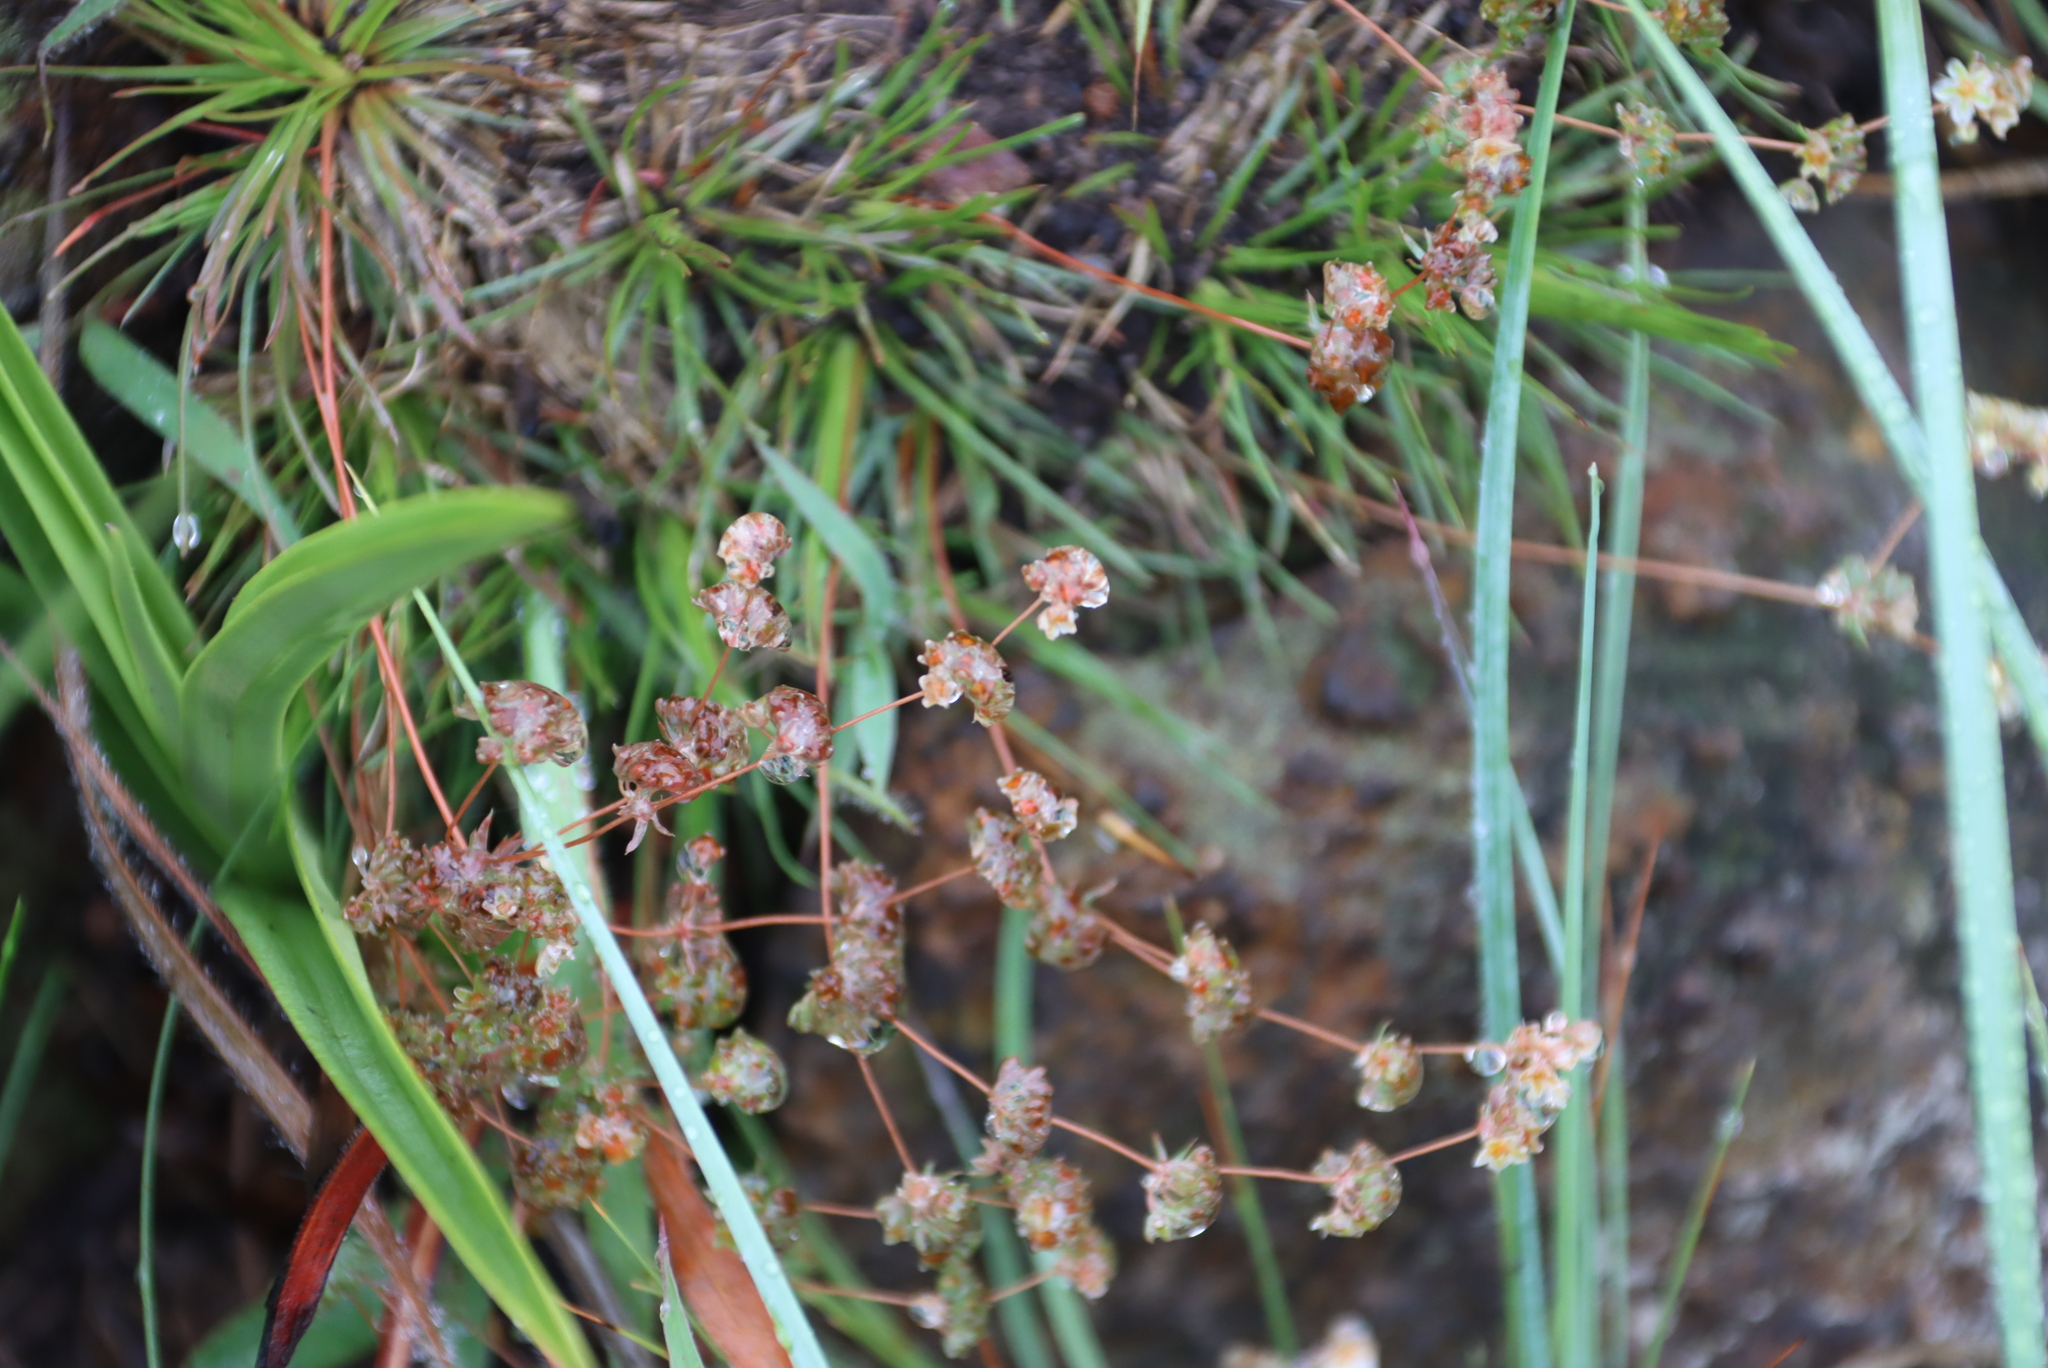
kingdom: Plantae
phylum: Tracheophyta
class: Magnoliopsida
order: Caryophyllales
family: Molluginaceae
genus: Psammotropha
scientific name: Psammotropha myriantha
